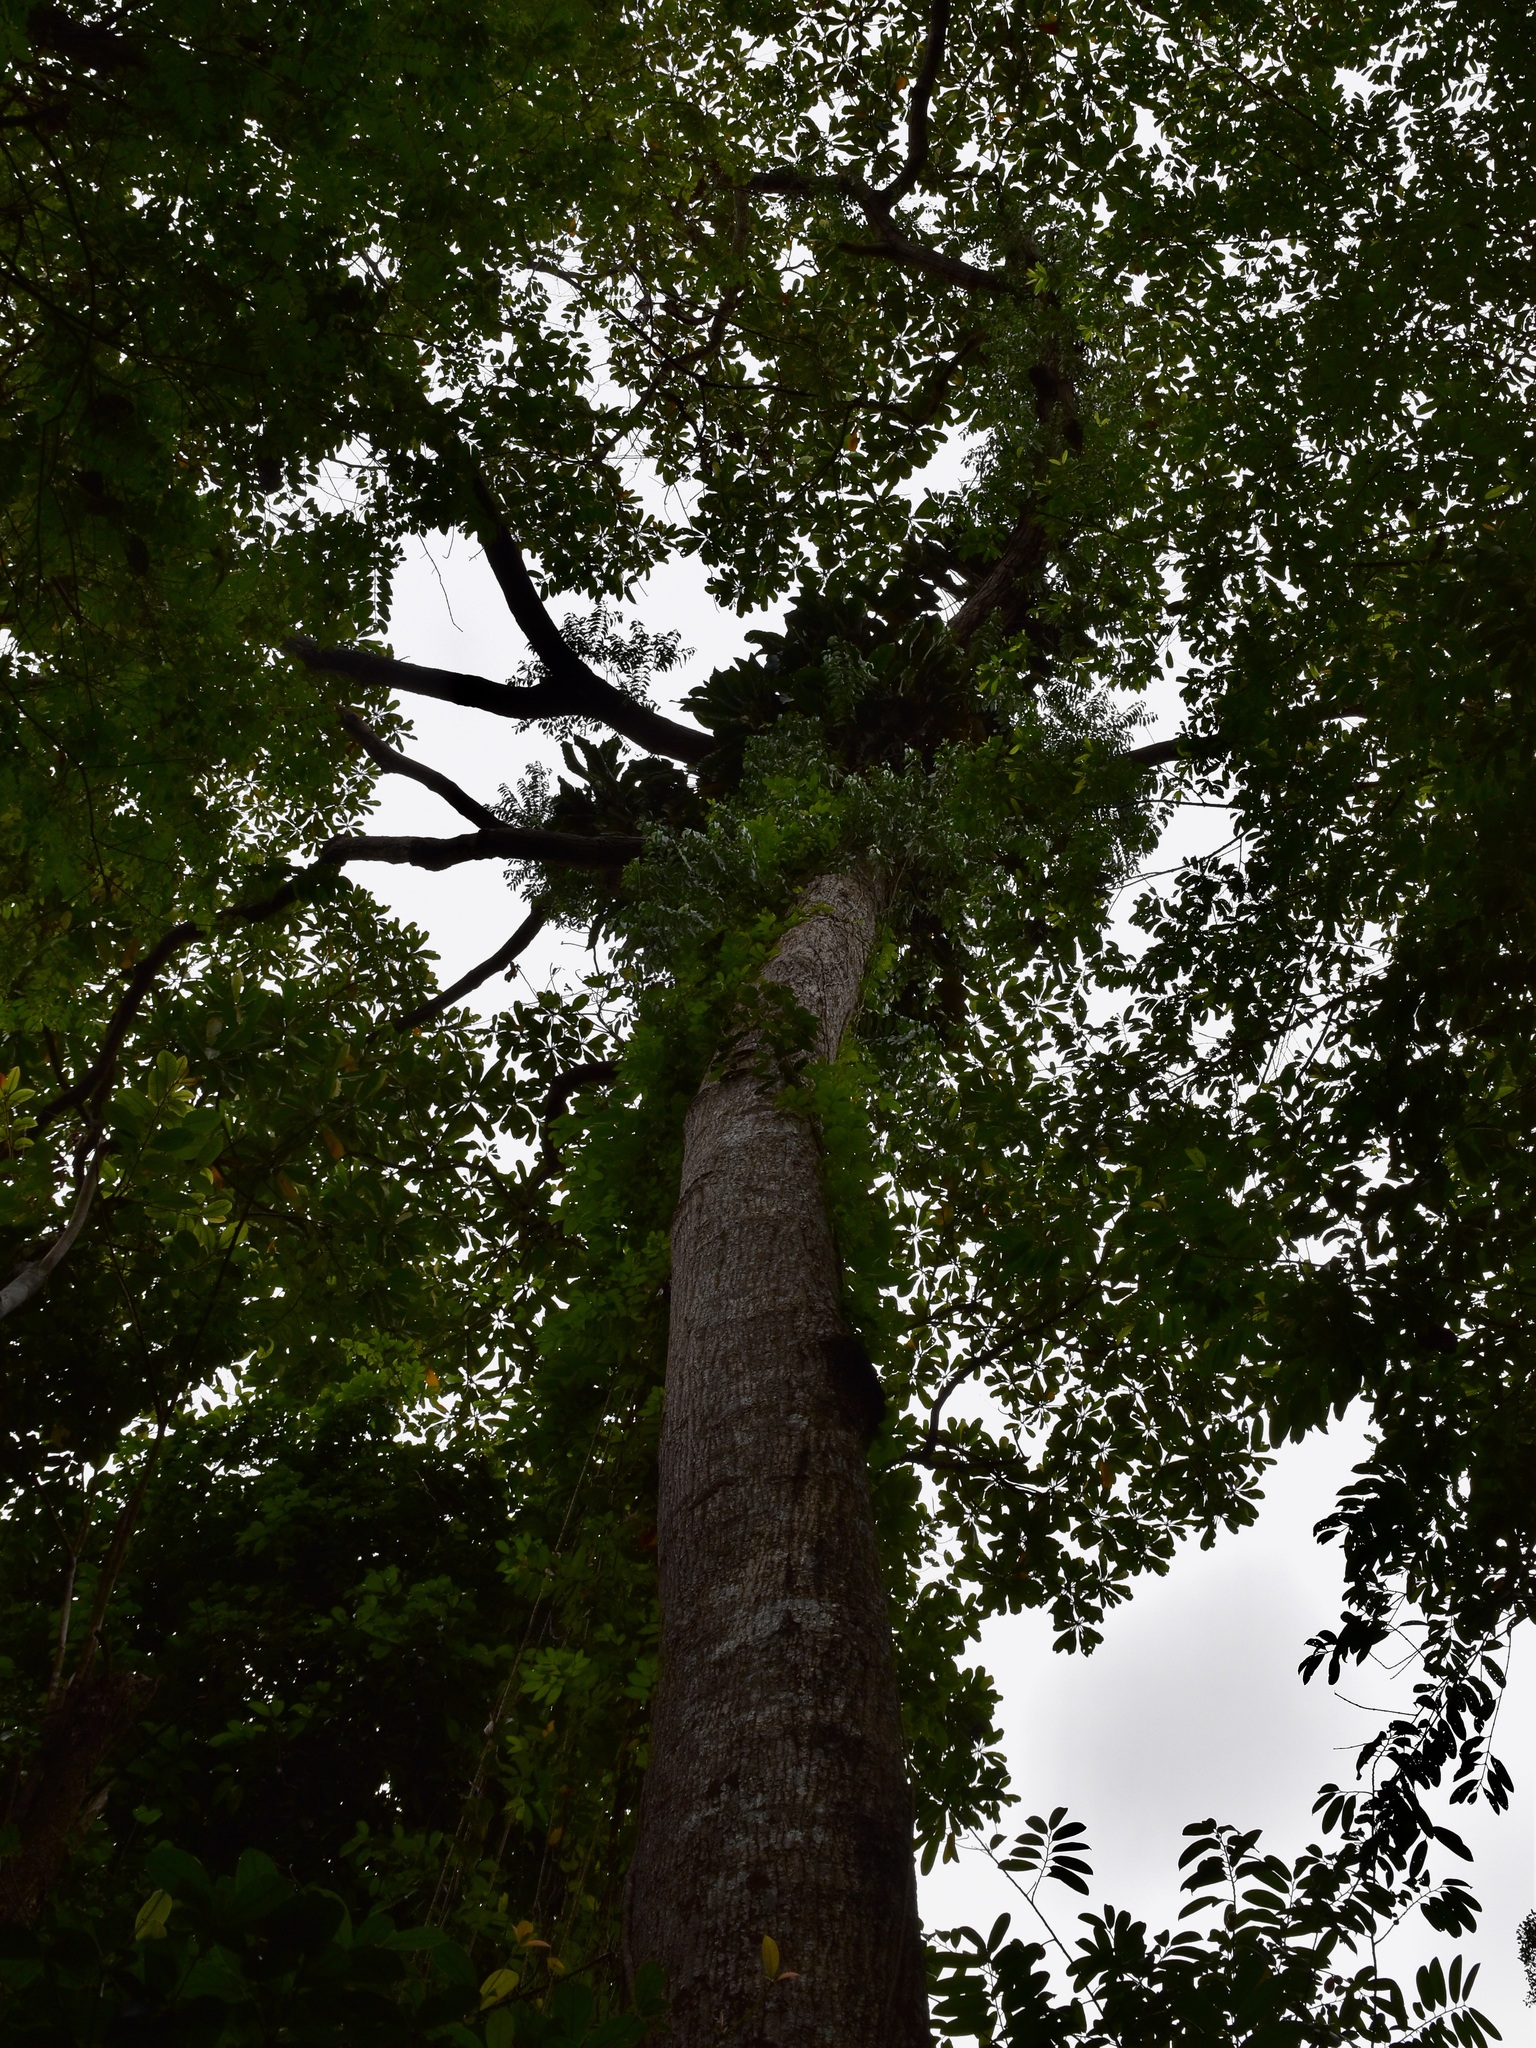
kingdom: Plantae
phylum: Tracheophyta
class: Magnoliopsida
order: Sapindales
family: Anacardiaceae
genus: Campnosperma
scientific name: Campnosperma auriculatum
